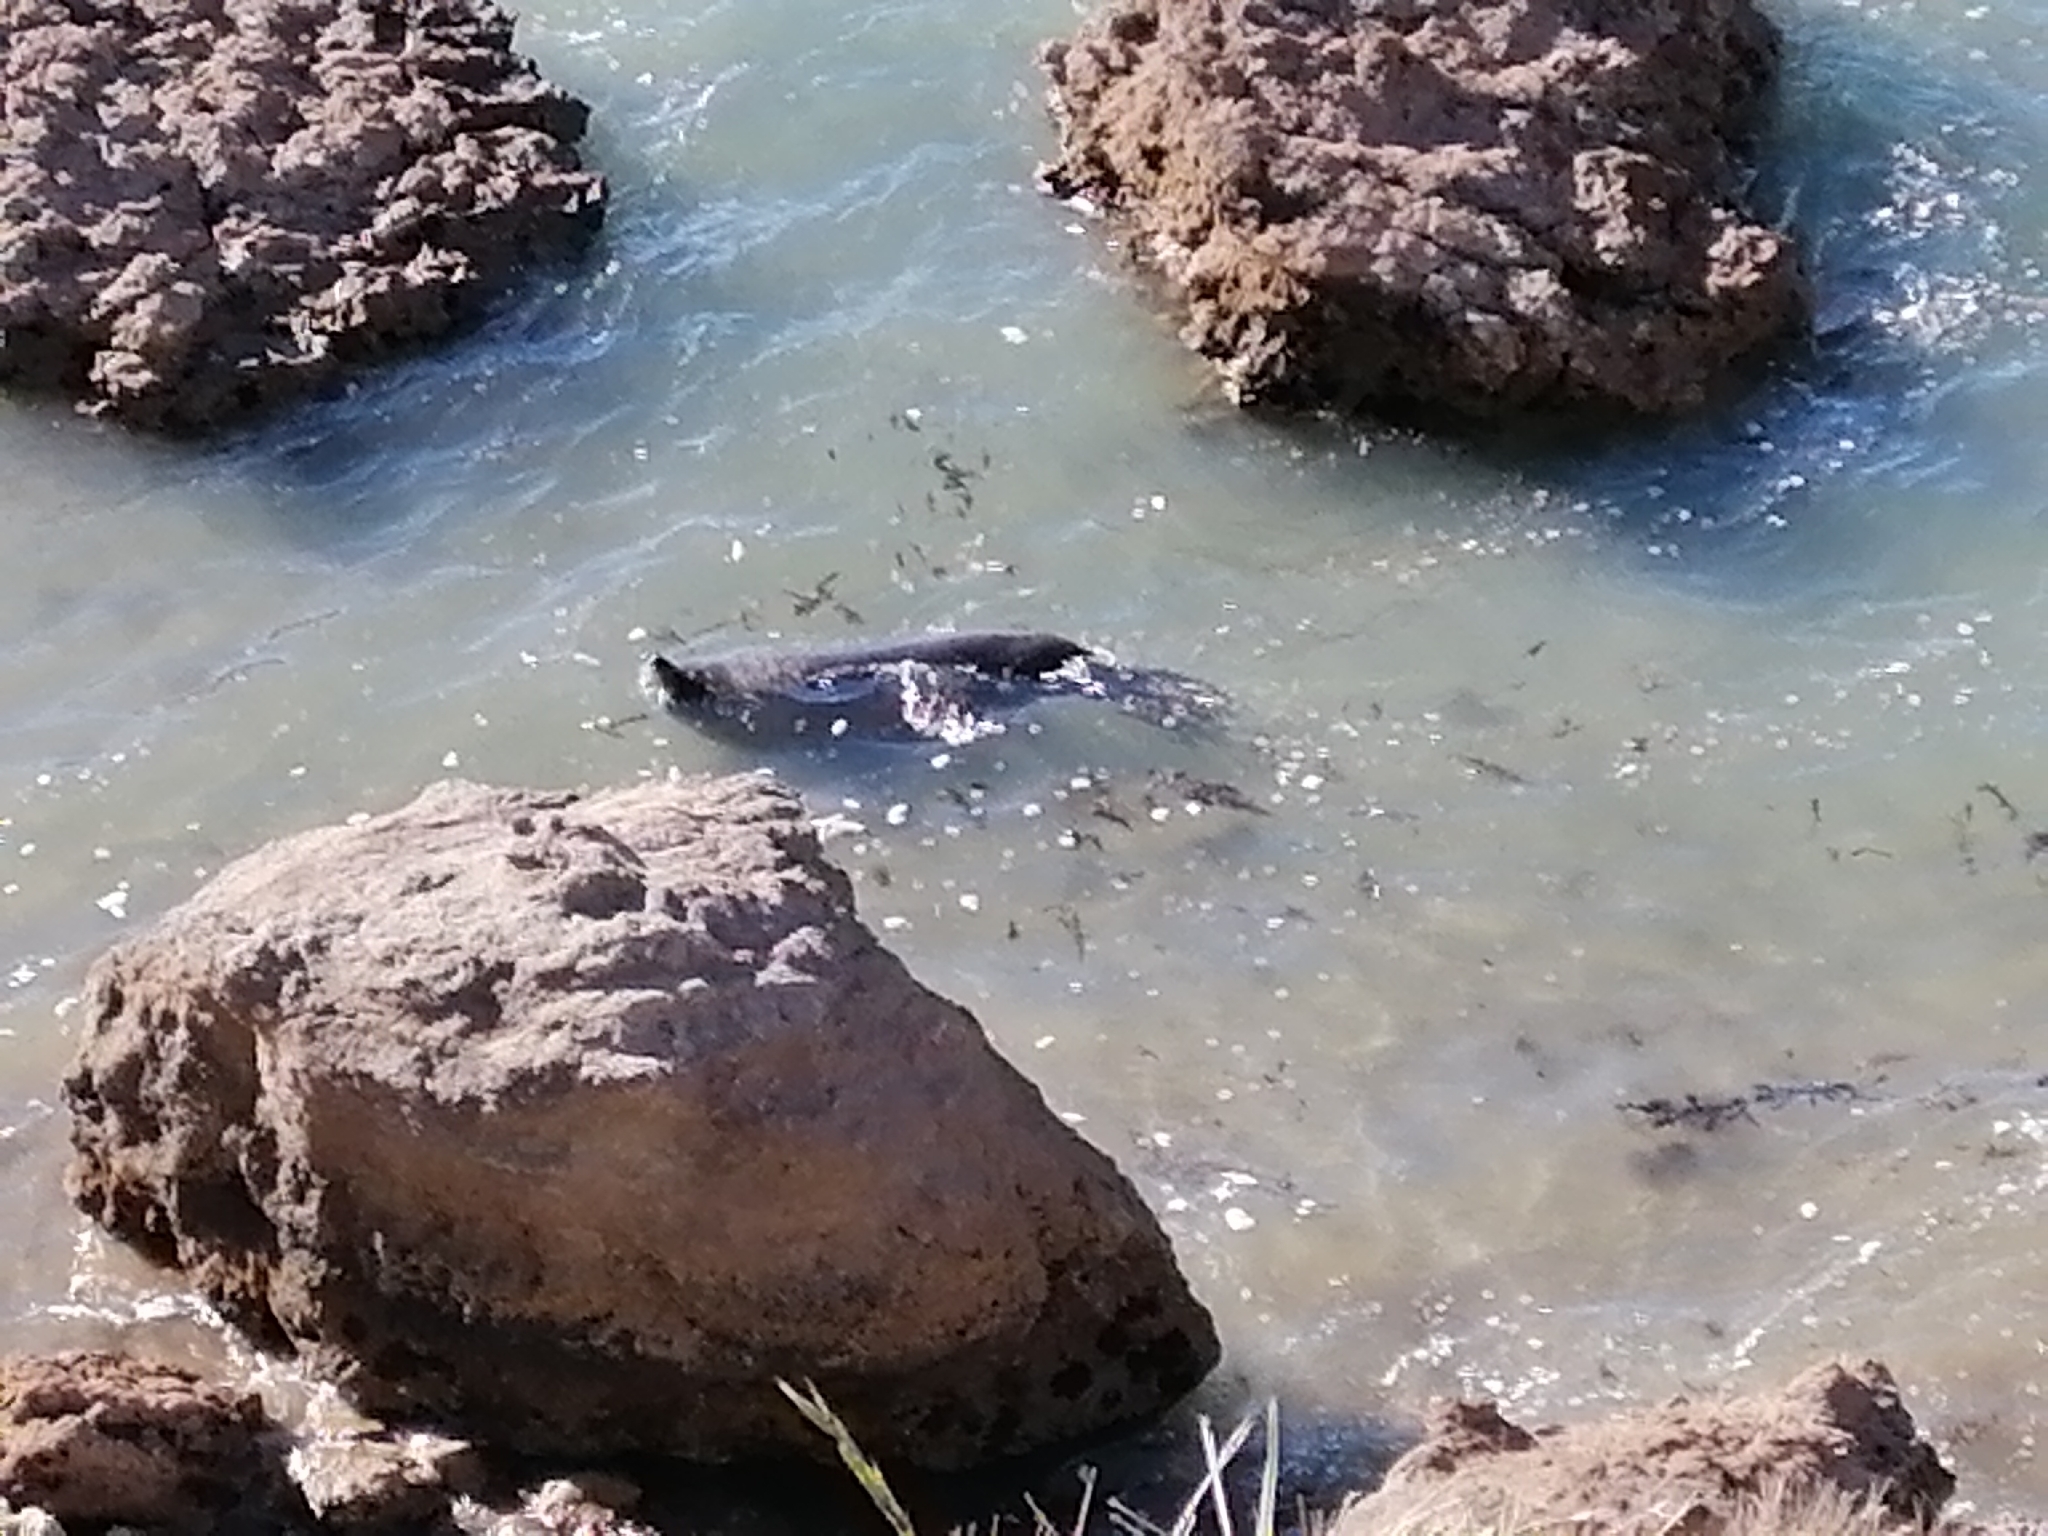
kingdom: Animalia
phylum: Chordata
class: Mammalia
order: Carnivora
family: Otariidae
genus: Arctocephalus
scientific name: Arctocephalus forsteri
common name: New zealand fur seal
